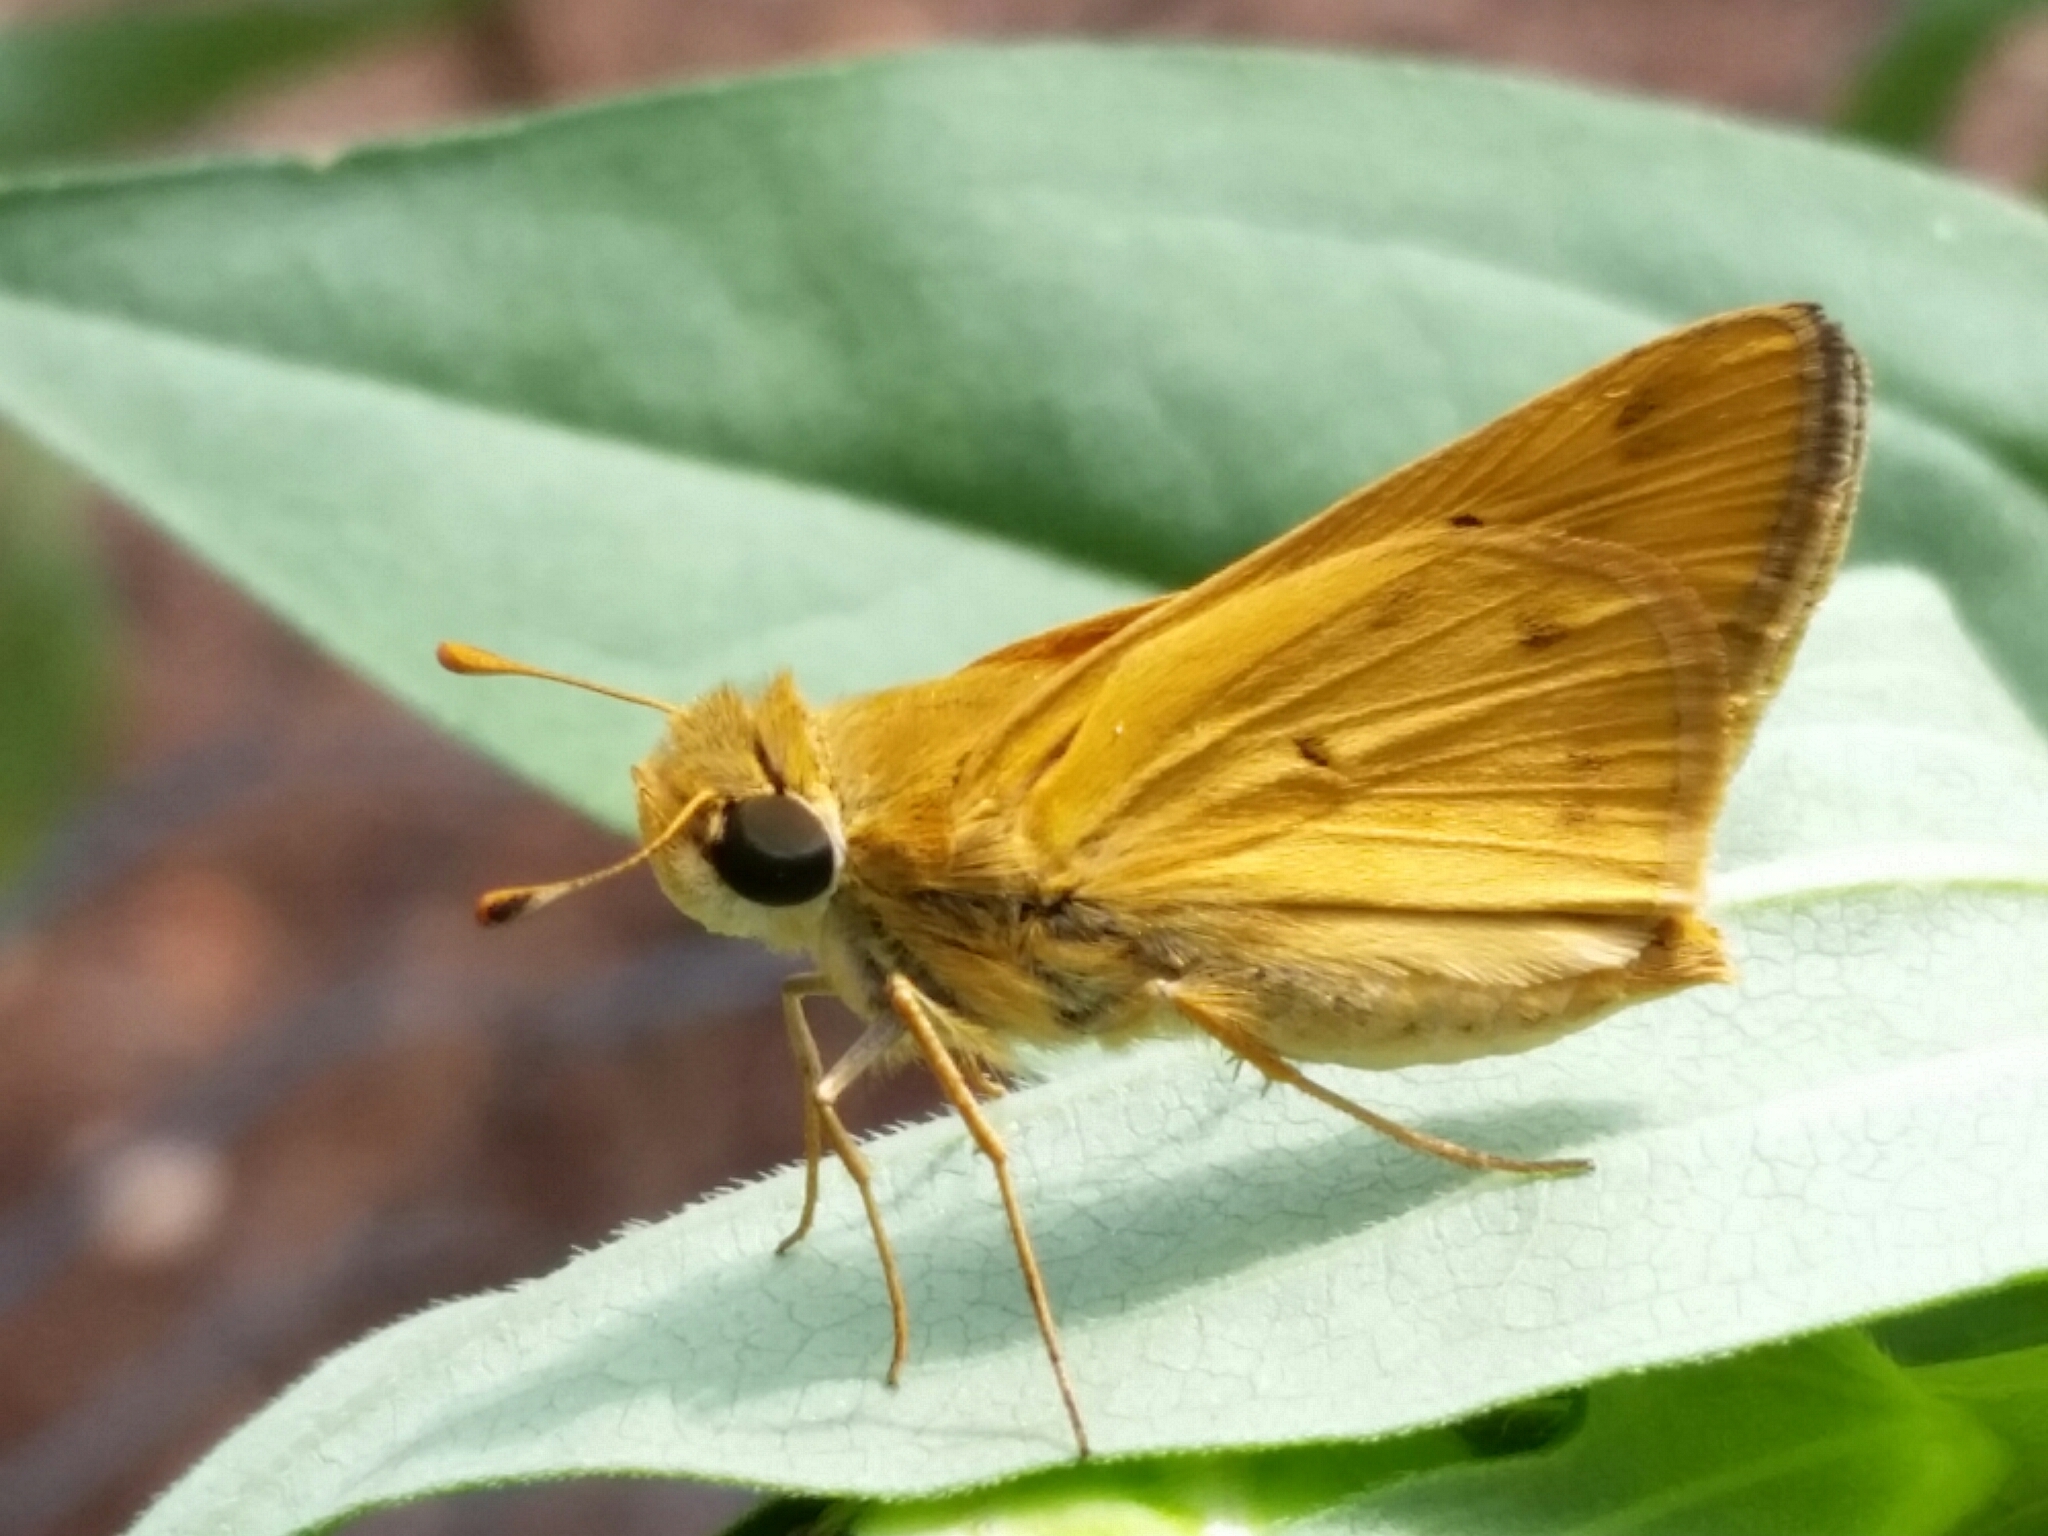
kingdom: Animalia
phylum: Arthropoda
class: Insecta
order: Lepidoptera
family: Hesperiidae
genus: Hylephila
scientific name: Hylephila phyleus
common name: Fiery skipper
